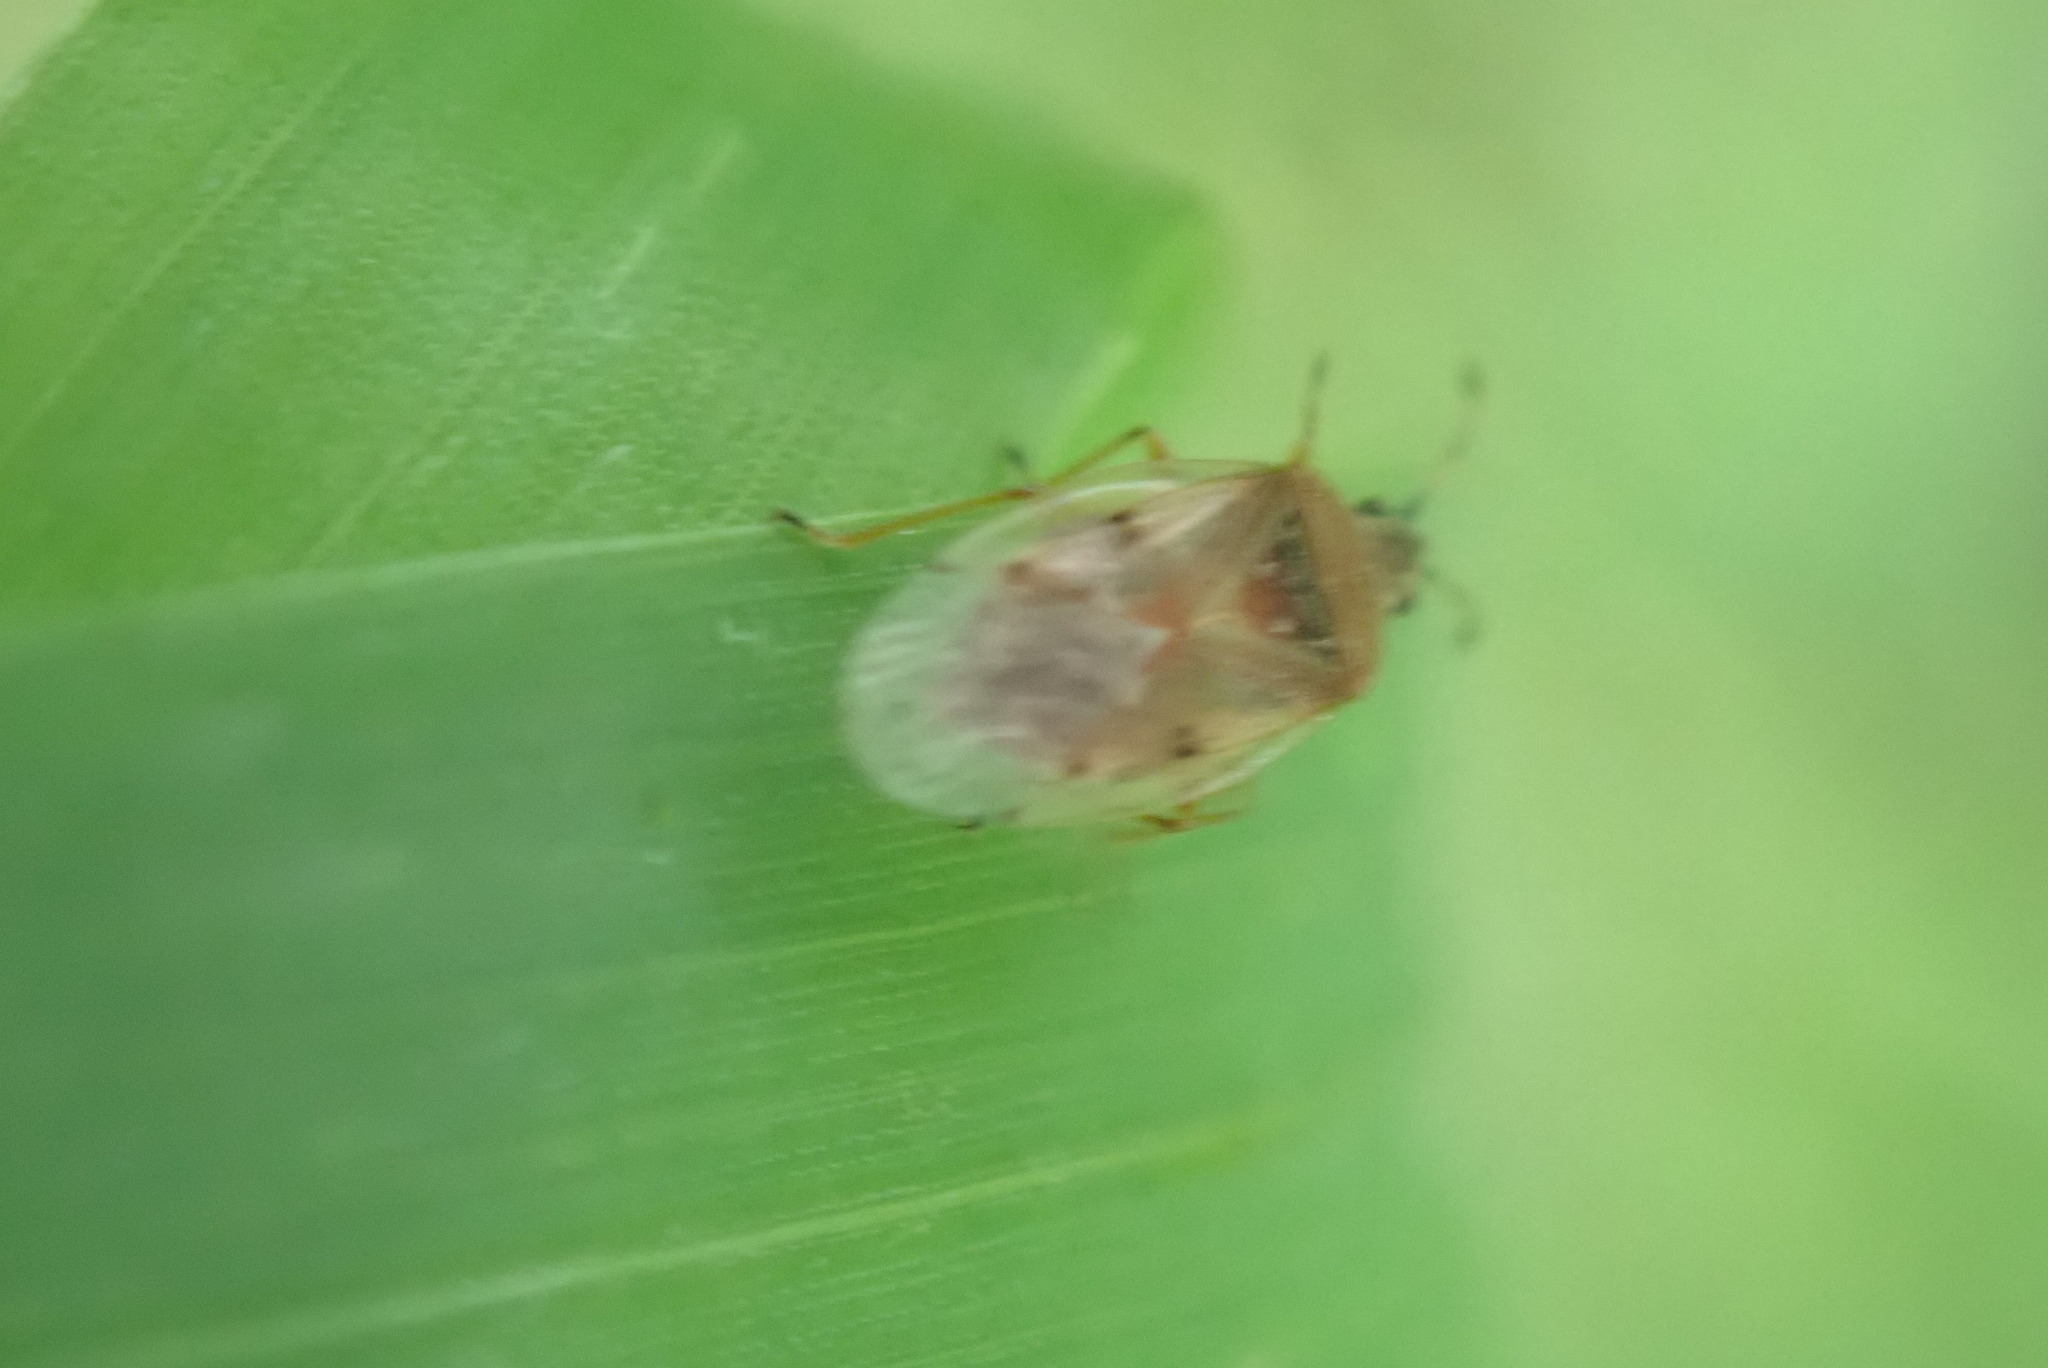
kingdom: Animalia
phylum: Arthropoda
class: Insecta
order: Hemiptera
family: Lygaeidae
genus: Kleidocerys
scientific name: Kleidocerys resedae
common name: Birch catkin bug
